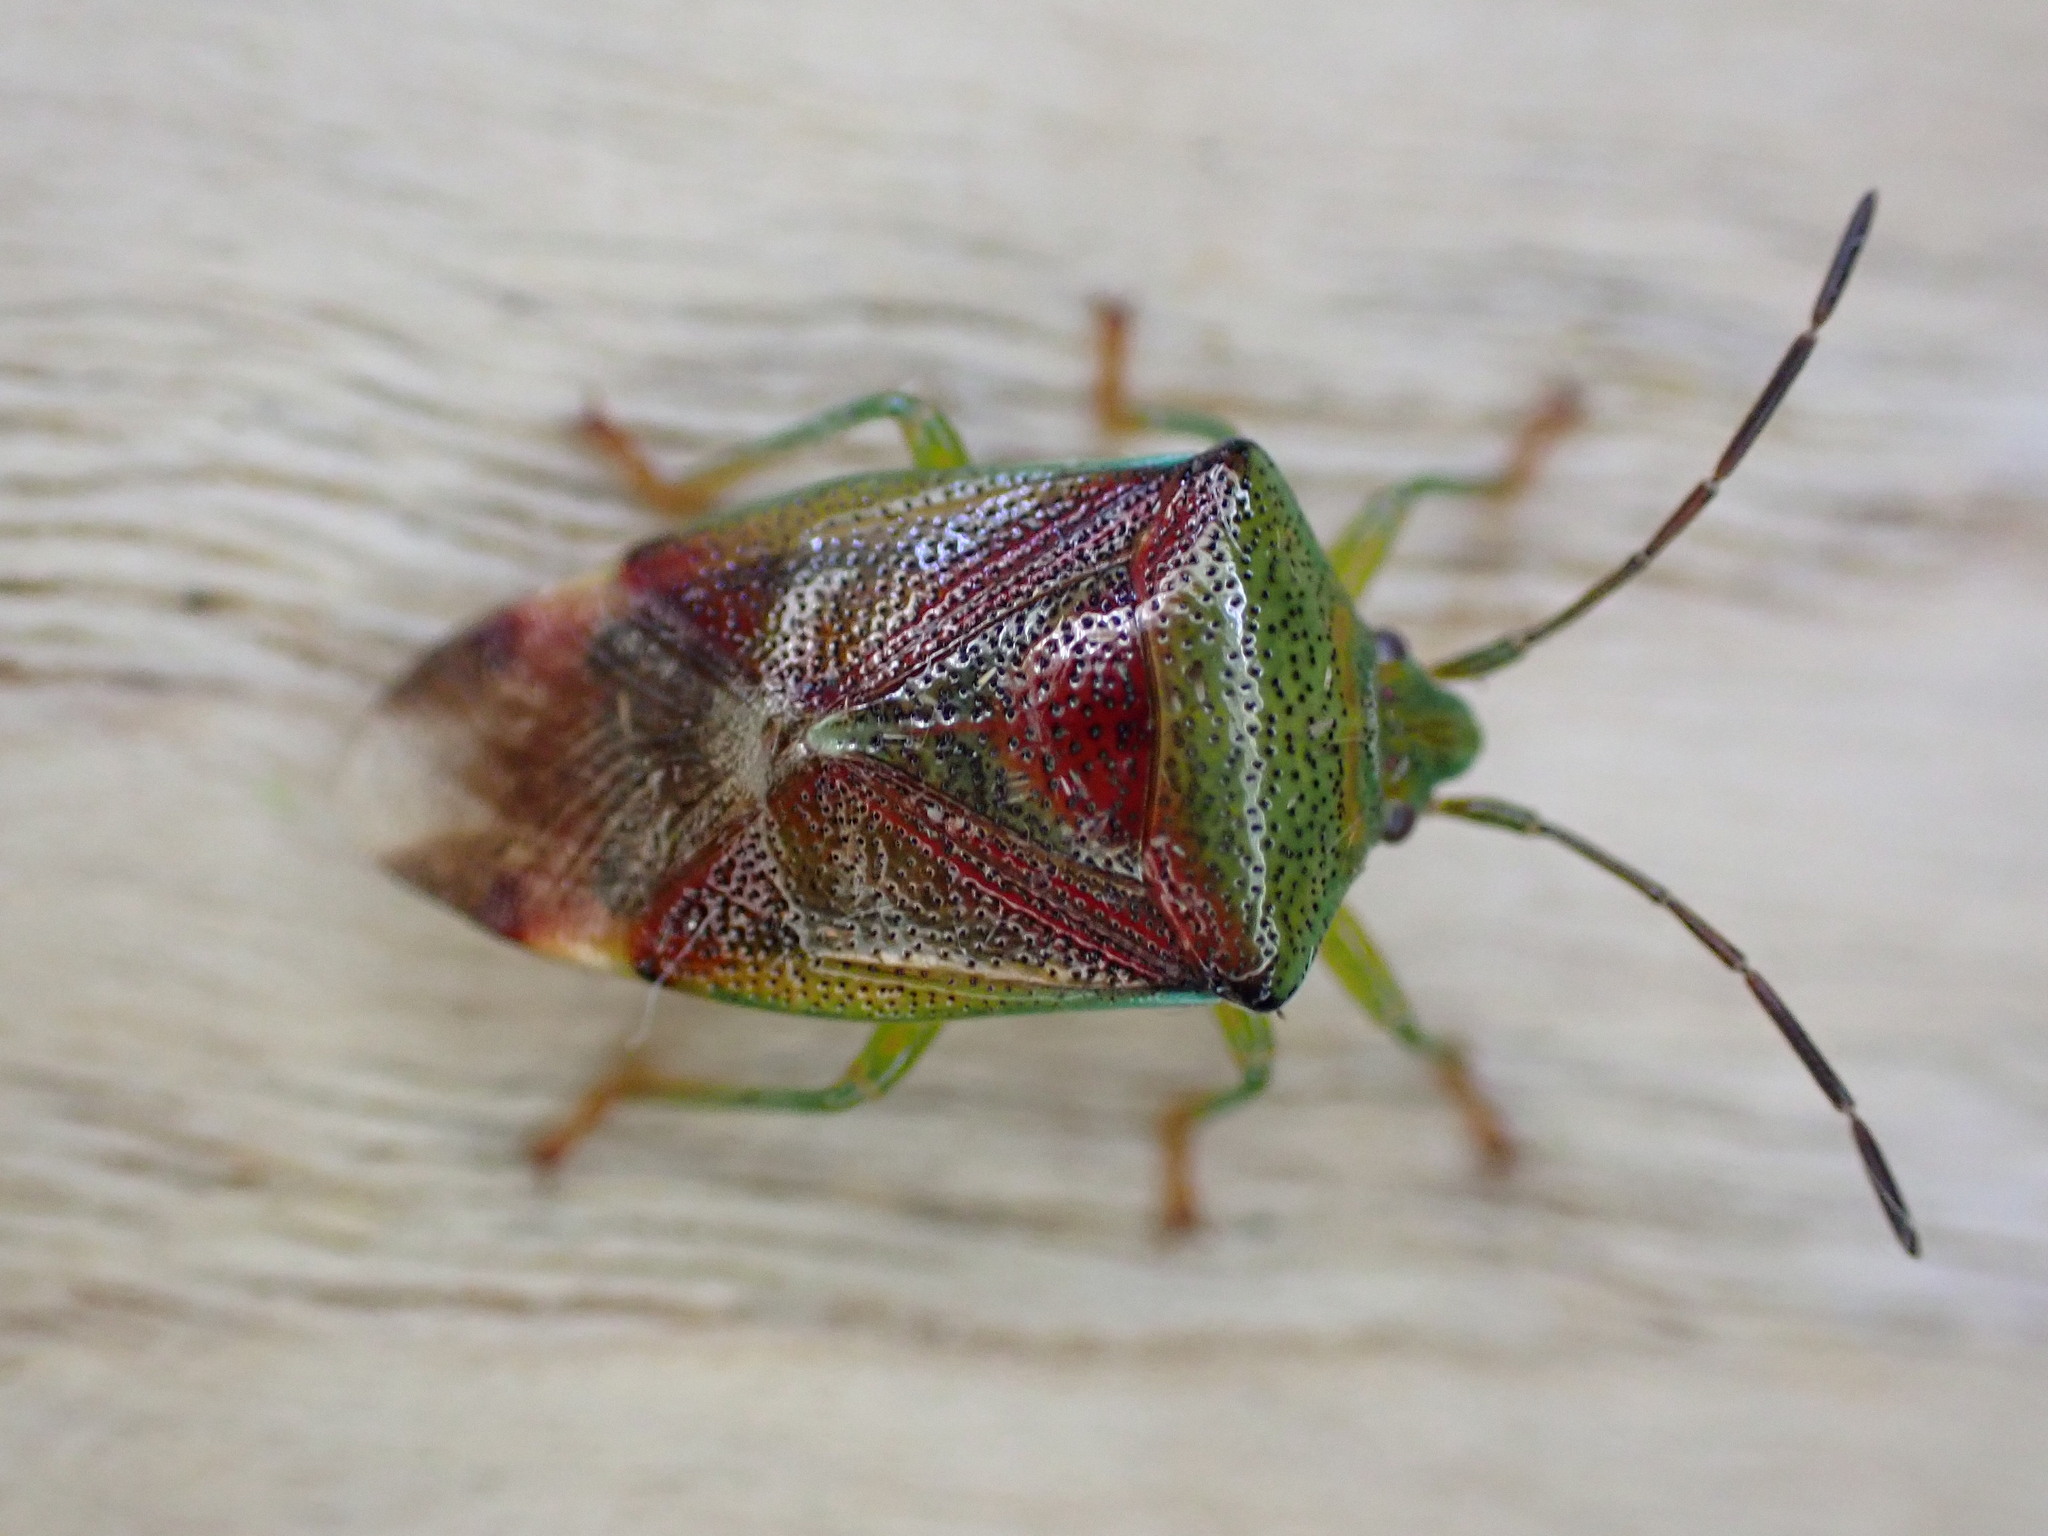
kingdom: Animalia
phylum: Arthropoda
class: Insecta
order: Hemiptera
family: Acanthosomatidae
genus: Elasmostethus
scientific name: Elasmostethus interstinctus
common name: Birch shieldbug
